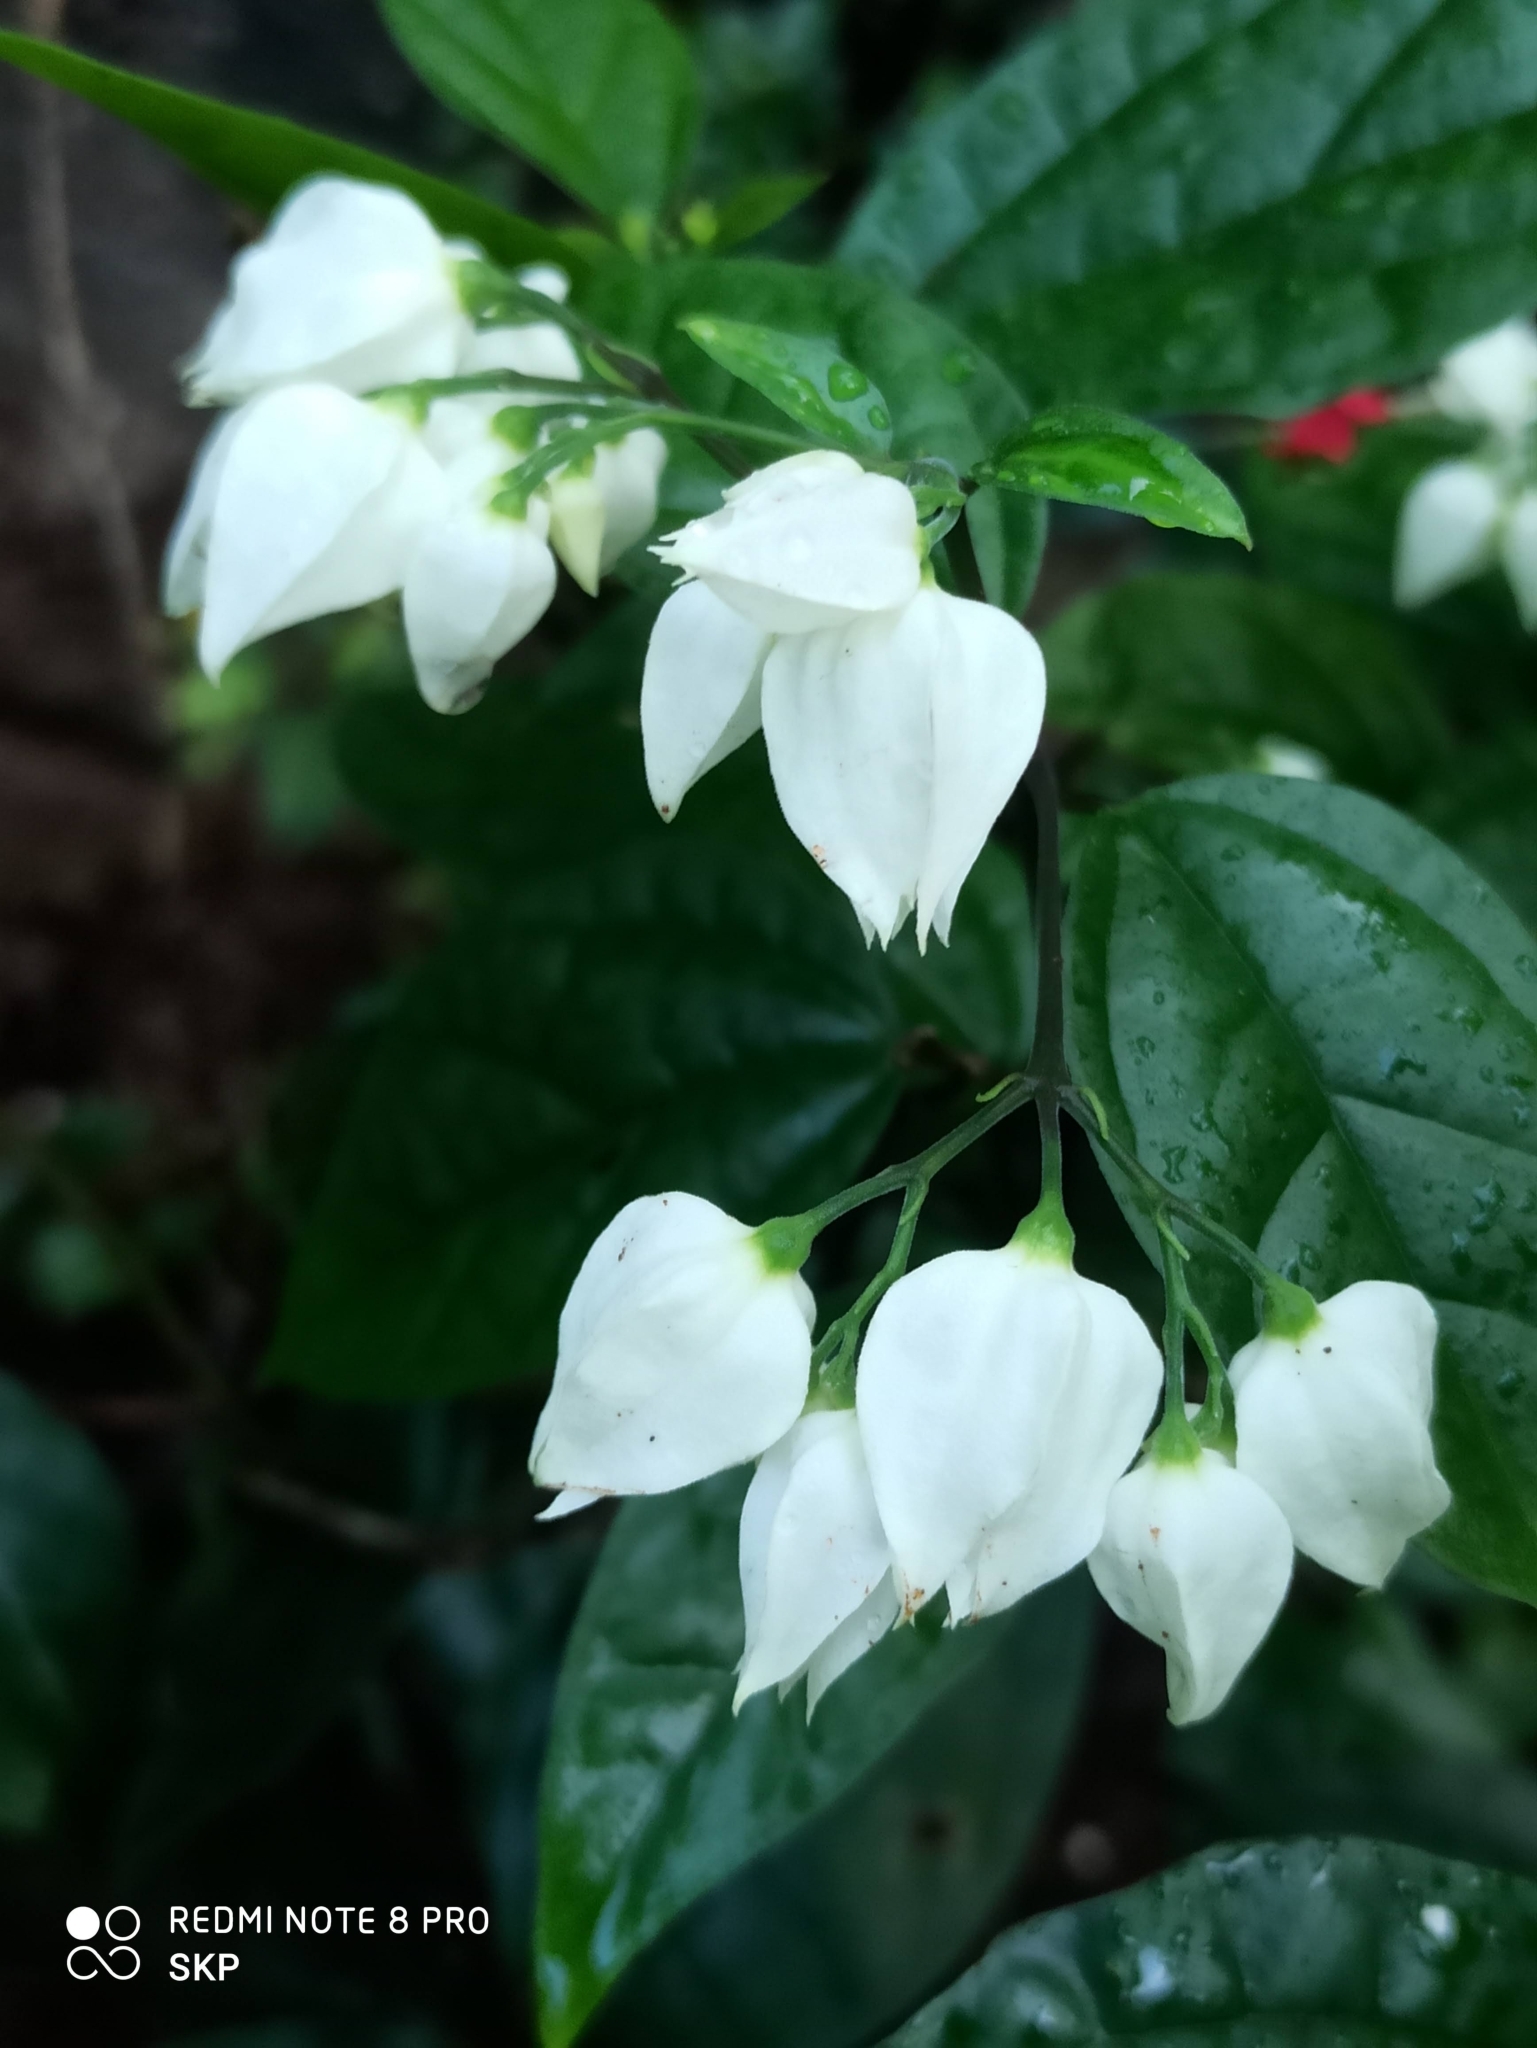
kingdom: Plantae
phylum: Tracheophyta
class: Magnoliopsida
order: Lamiales
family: Lamiaceae
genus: Clerodendrum
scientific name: Clerodendrum thomsoniae
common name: Bagflower
